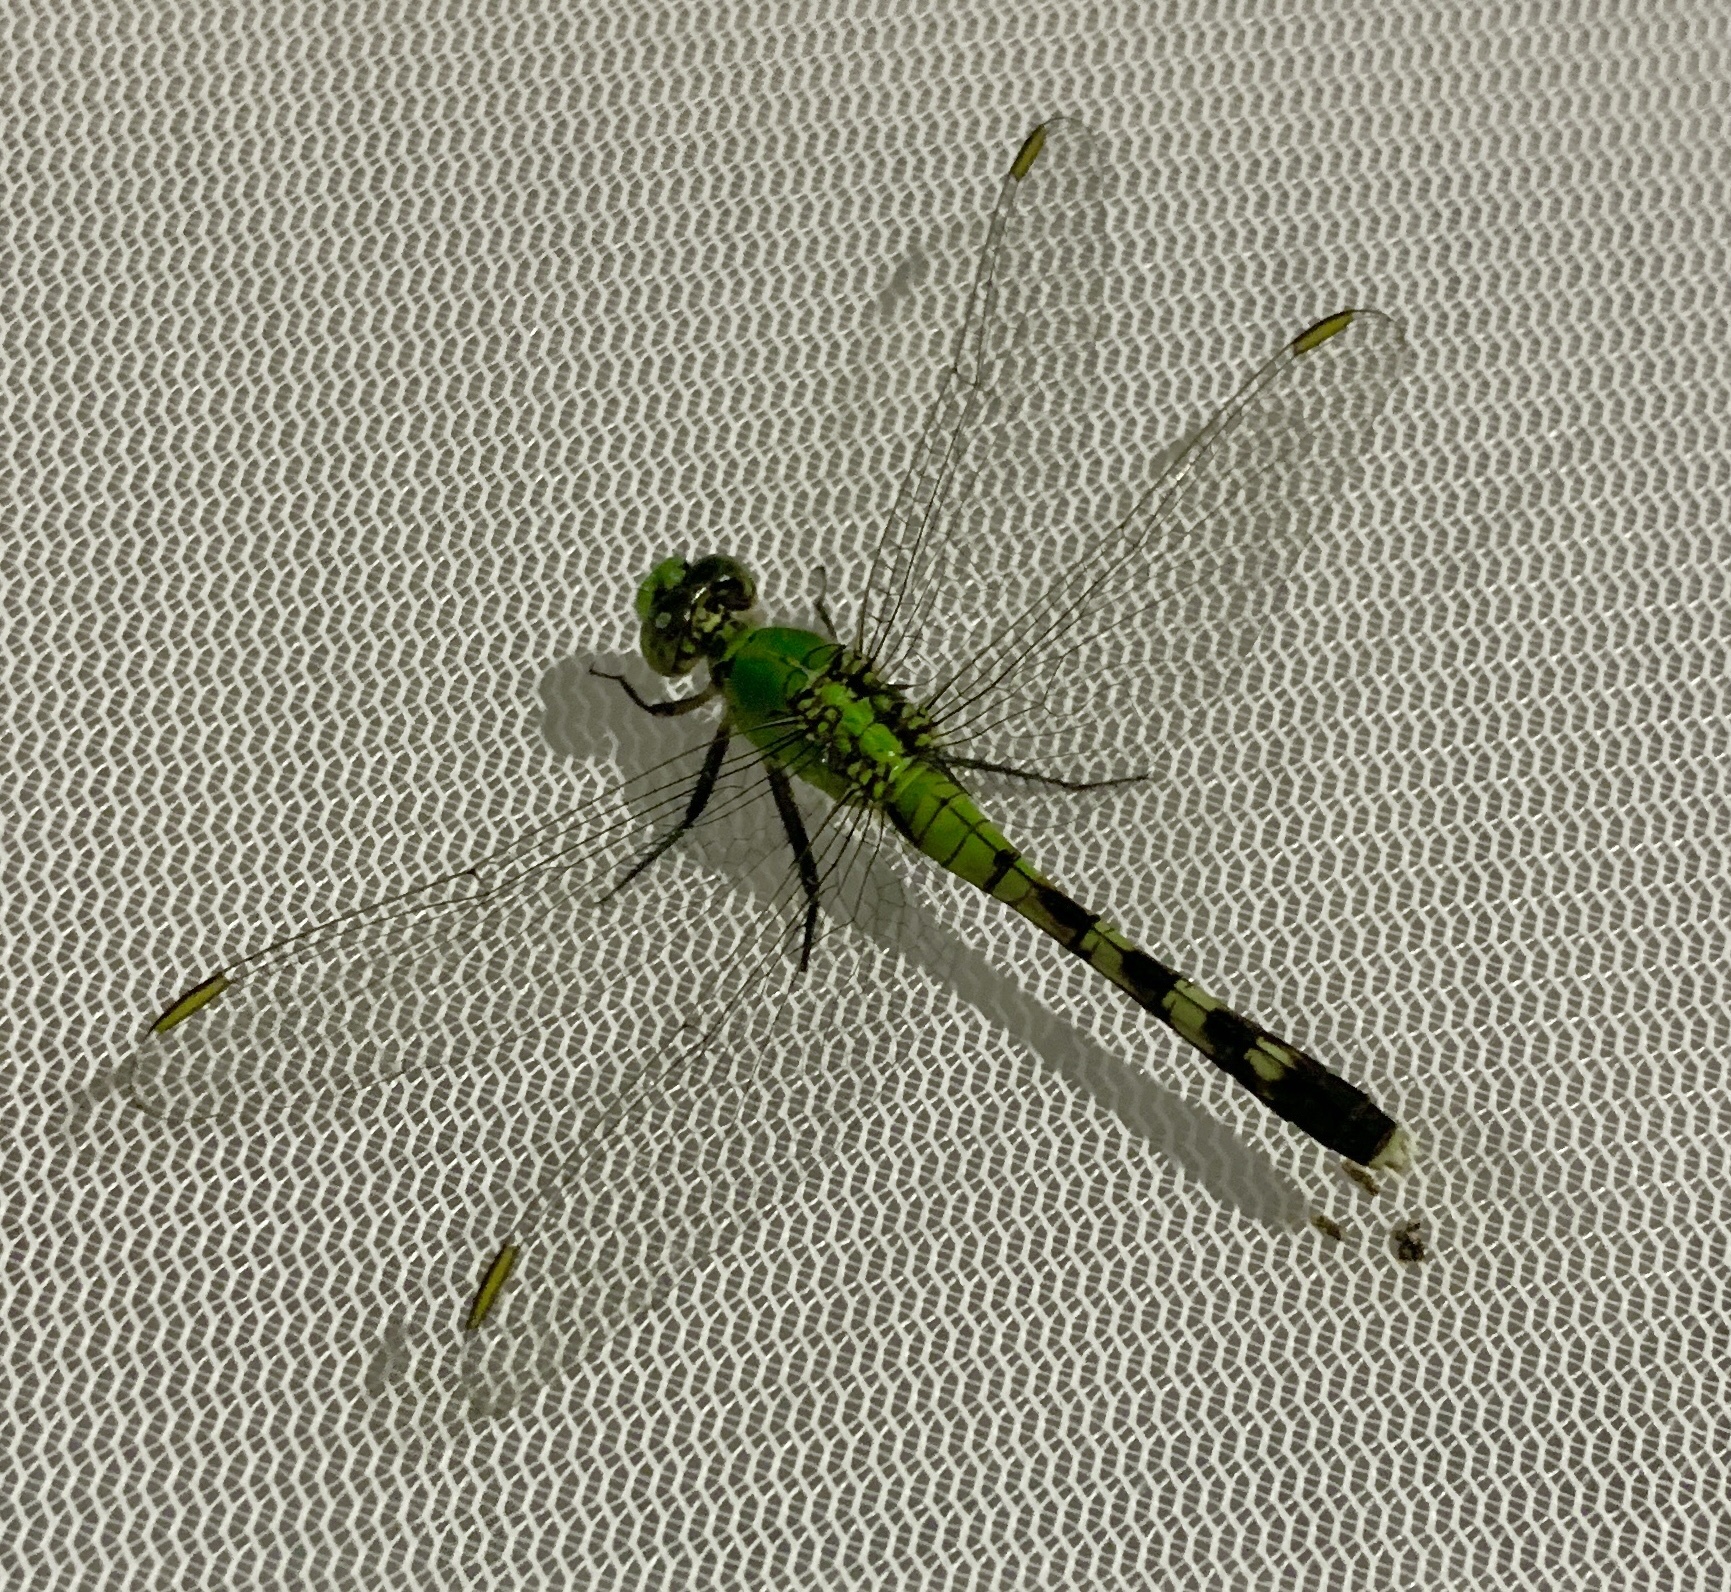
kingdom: Animalia
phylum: Arthropoda
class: Insecta
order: Odonata
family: Libellulidae
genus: Erythemis
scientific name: Erythemis simplicicollis
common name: Eastern pondhawk
